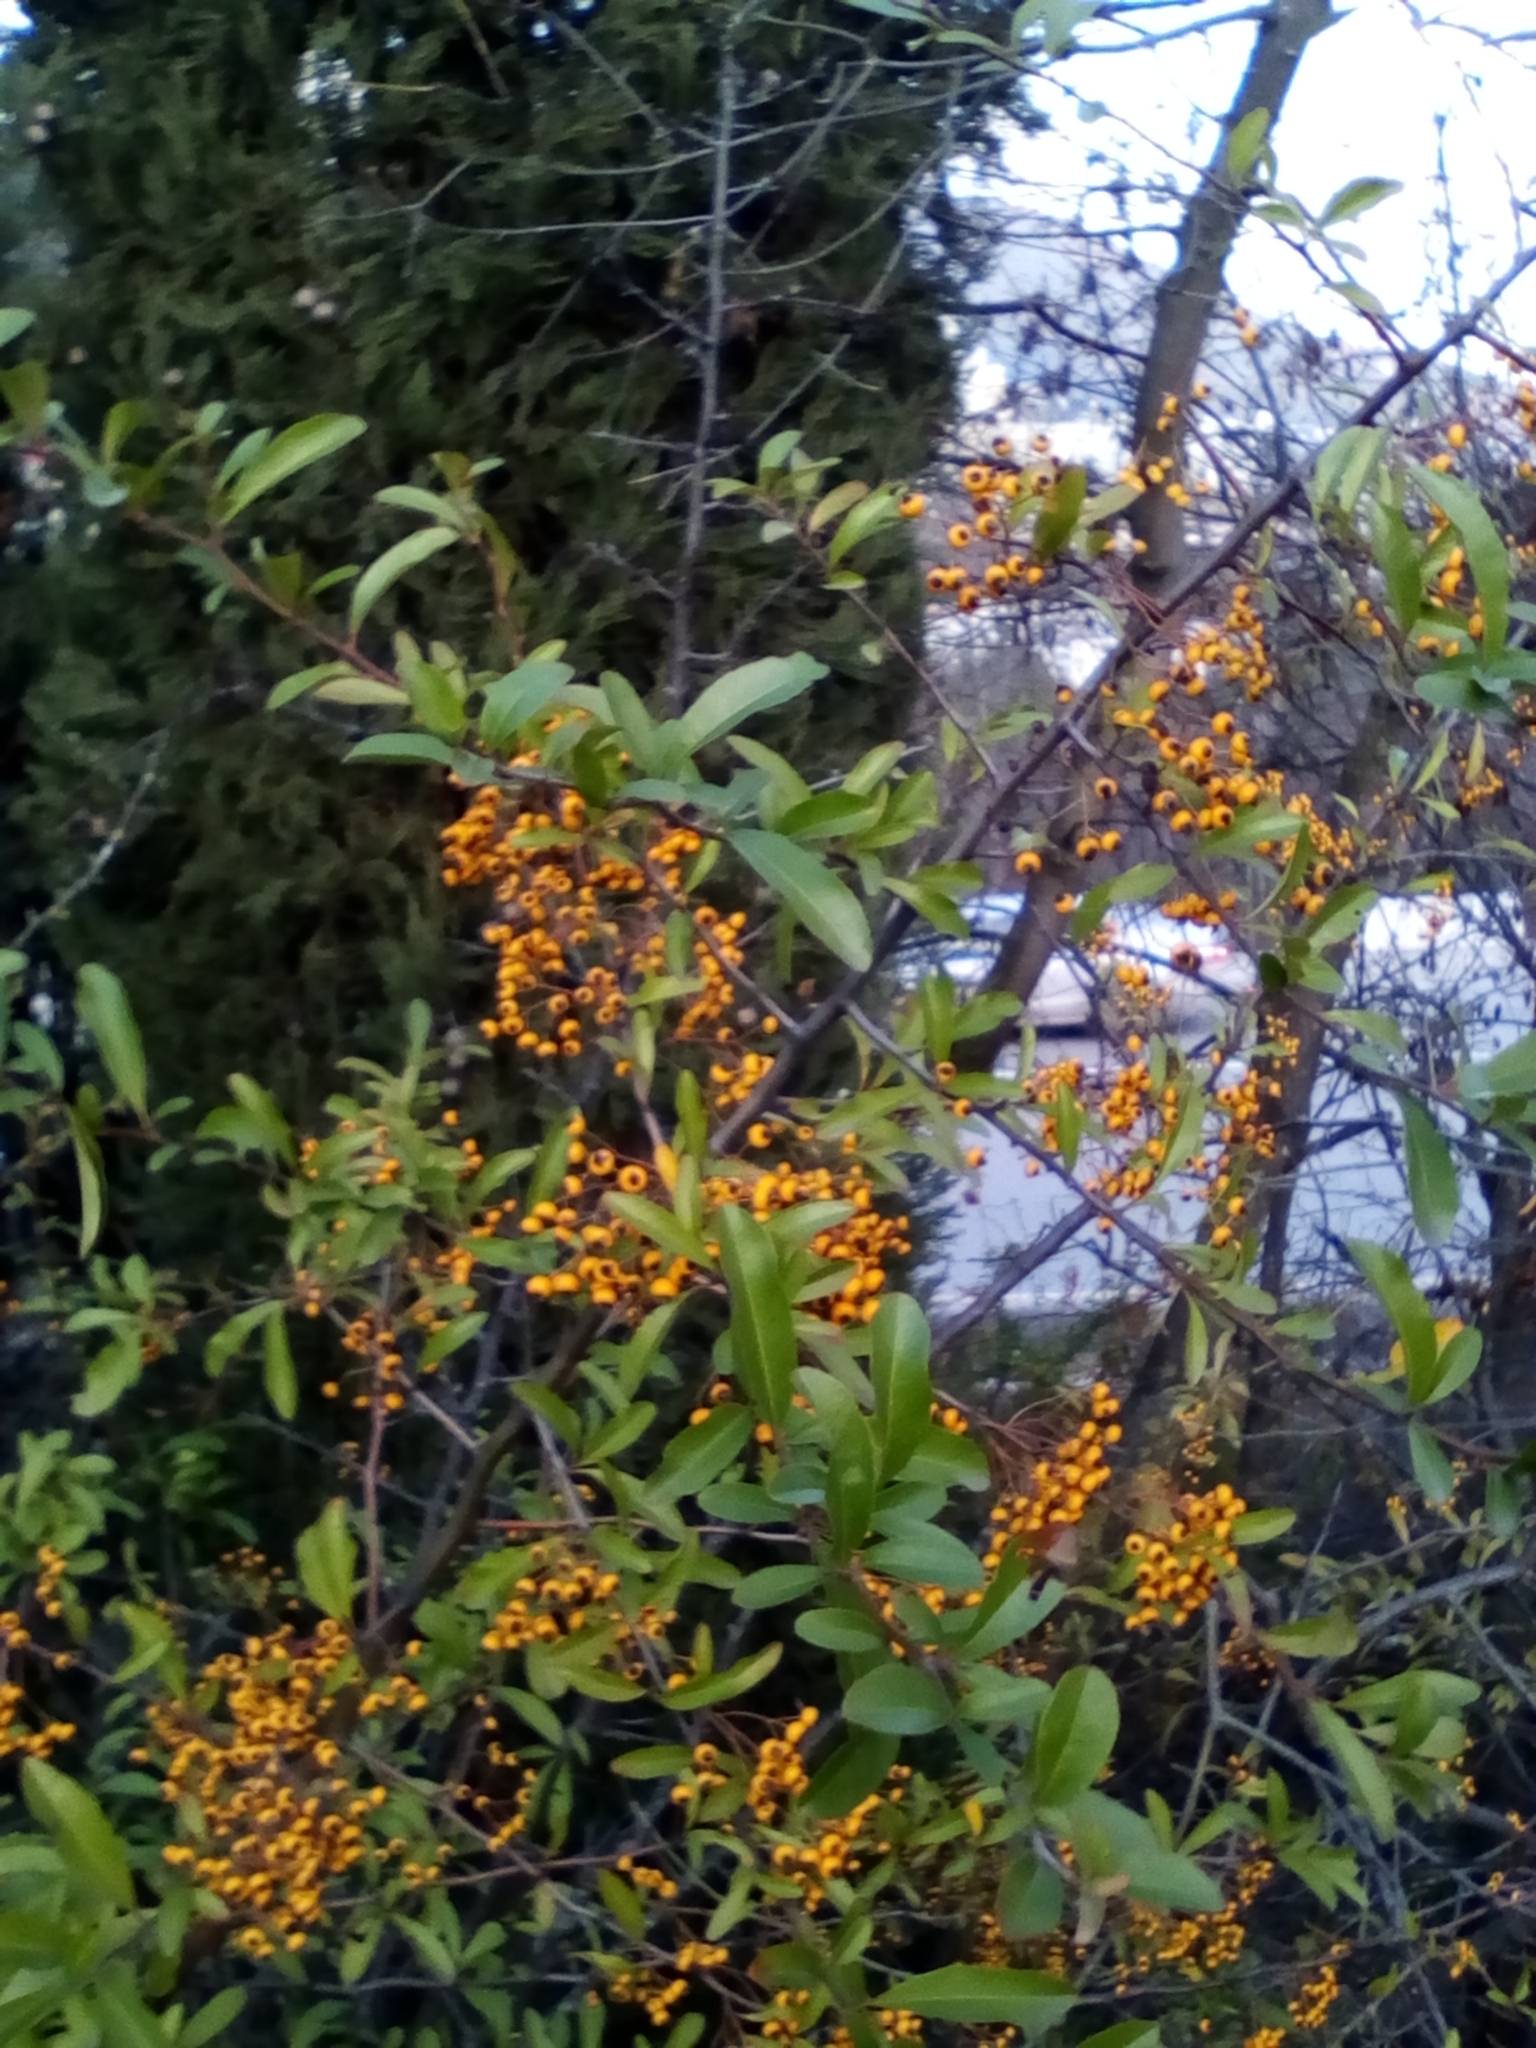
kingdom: Plantae
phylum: Tracheophyta
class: Magnoliopsida
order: Rosales
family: Rosaceae
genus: Pyracantha
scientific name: Pyracantha coccinea
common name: Firethorn
